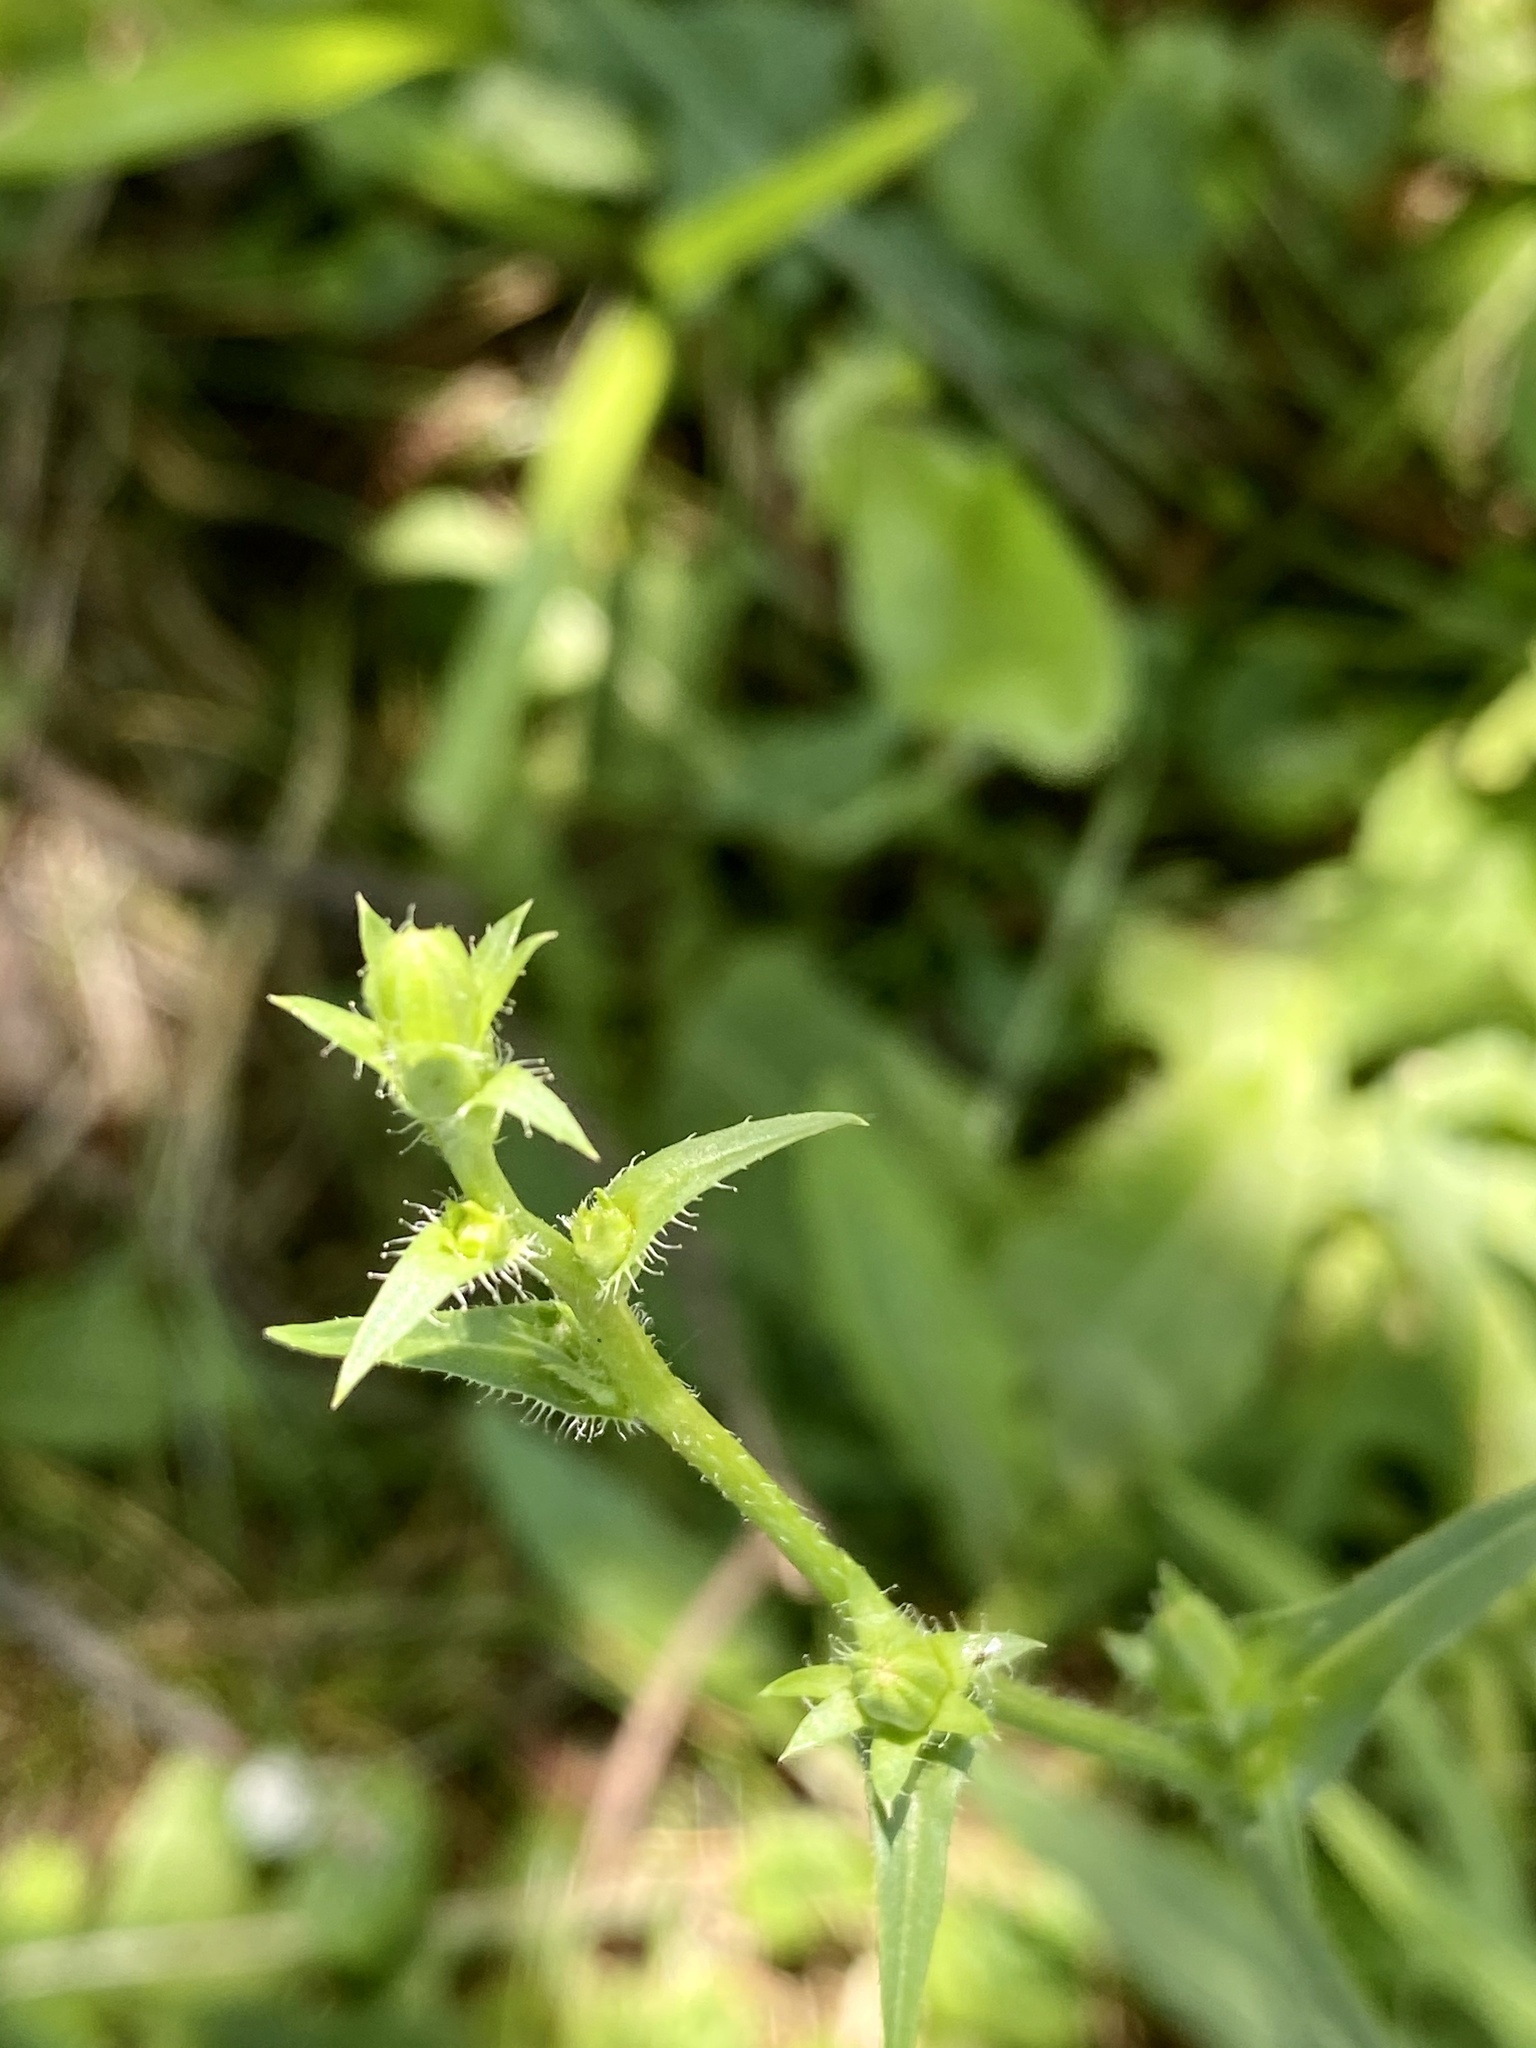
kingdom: Plantae
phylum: Tracheophyta
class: Magnoliopsida
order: Asterales
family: Asteraceae
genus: Cichorium
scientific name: Cichorium intybus
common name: Chicory
